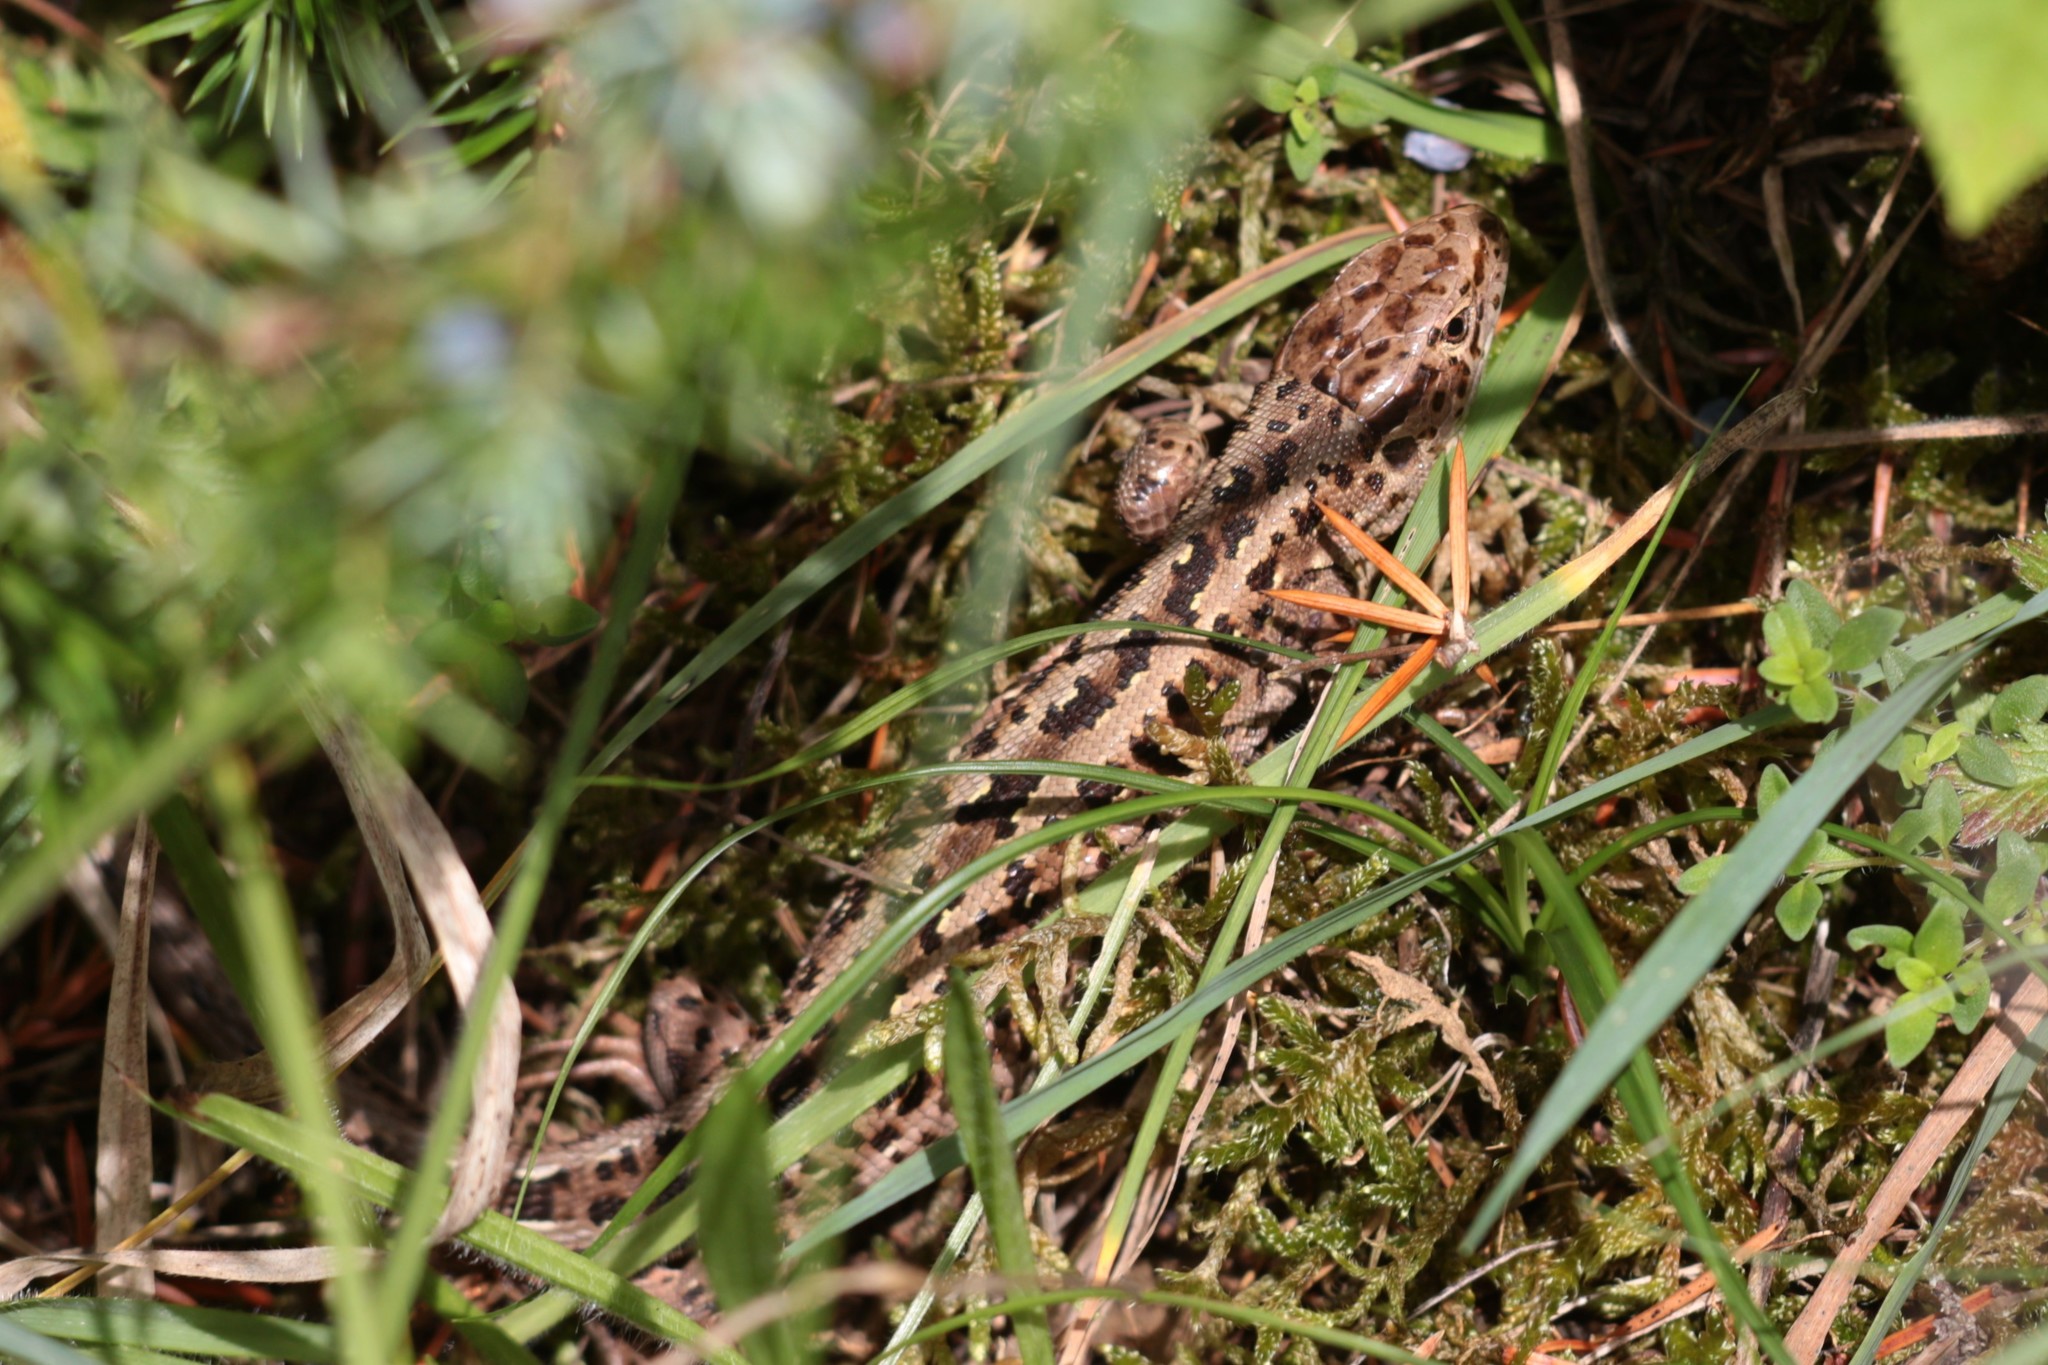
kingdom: Animalia
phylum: Chordata
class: Squamata
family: Lacertidae
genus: Lacerta
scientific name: Lacerta agilis
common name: Sand lizard
